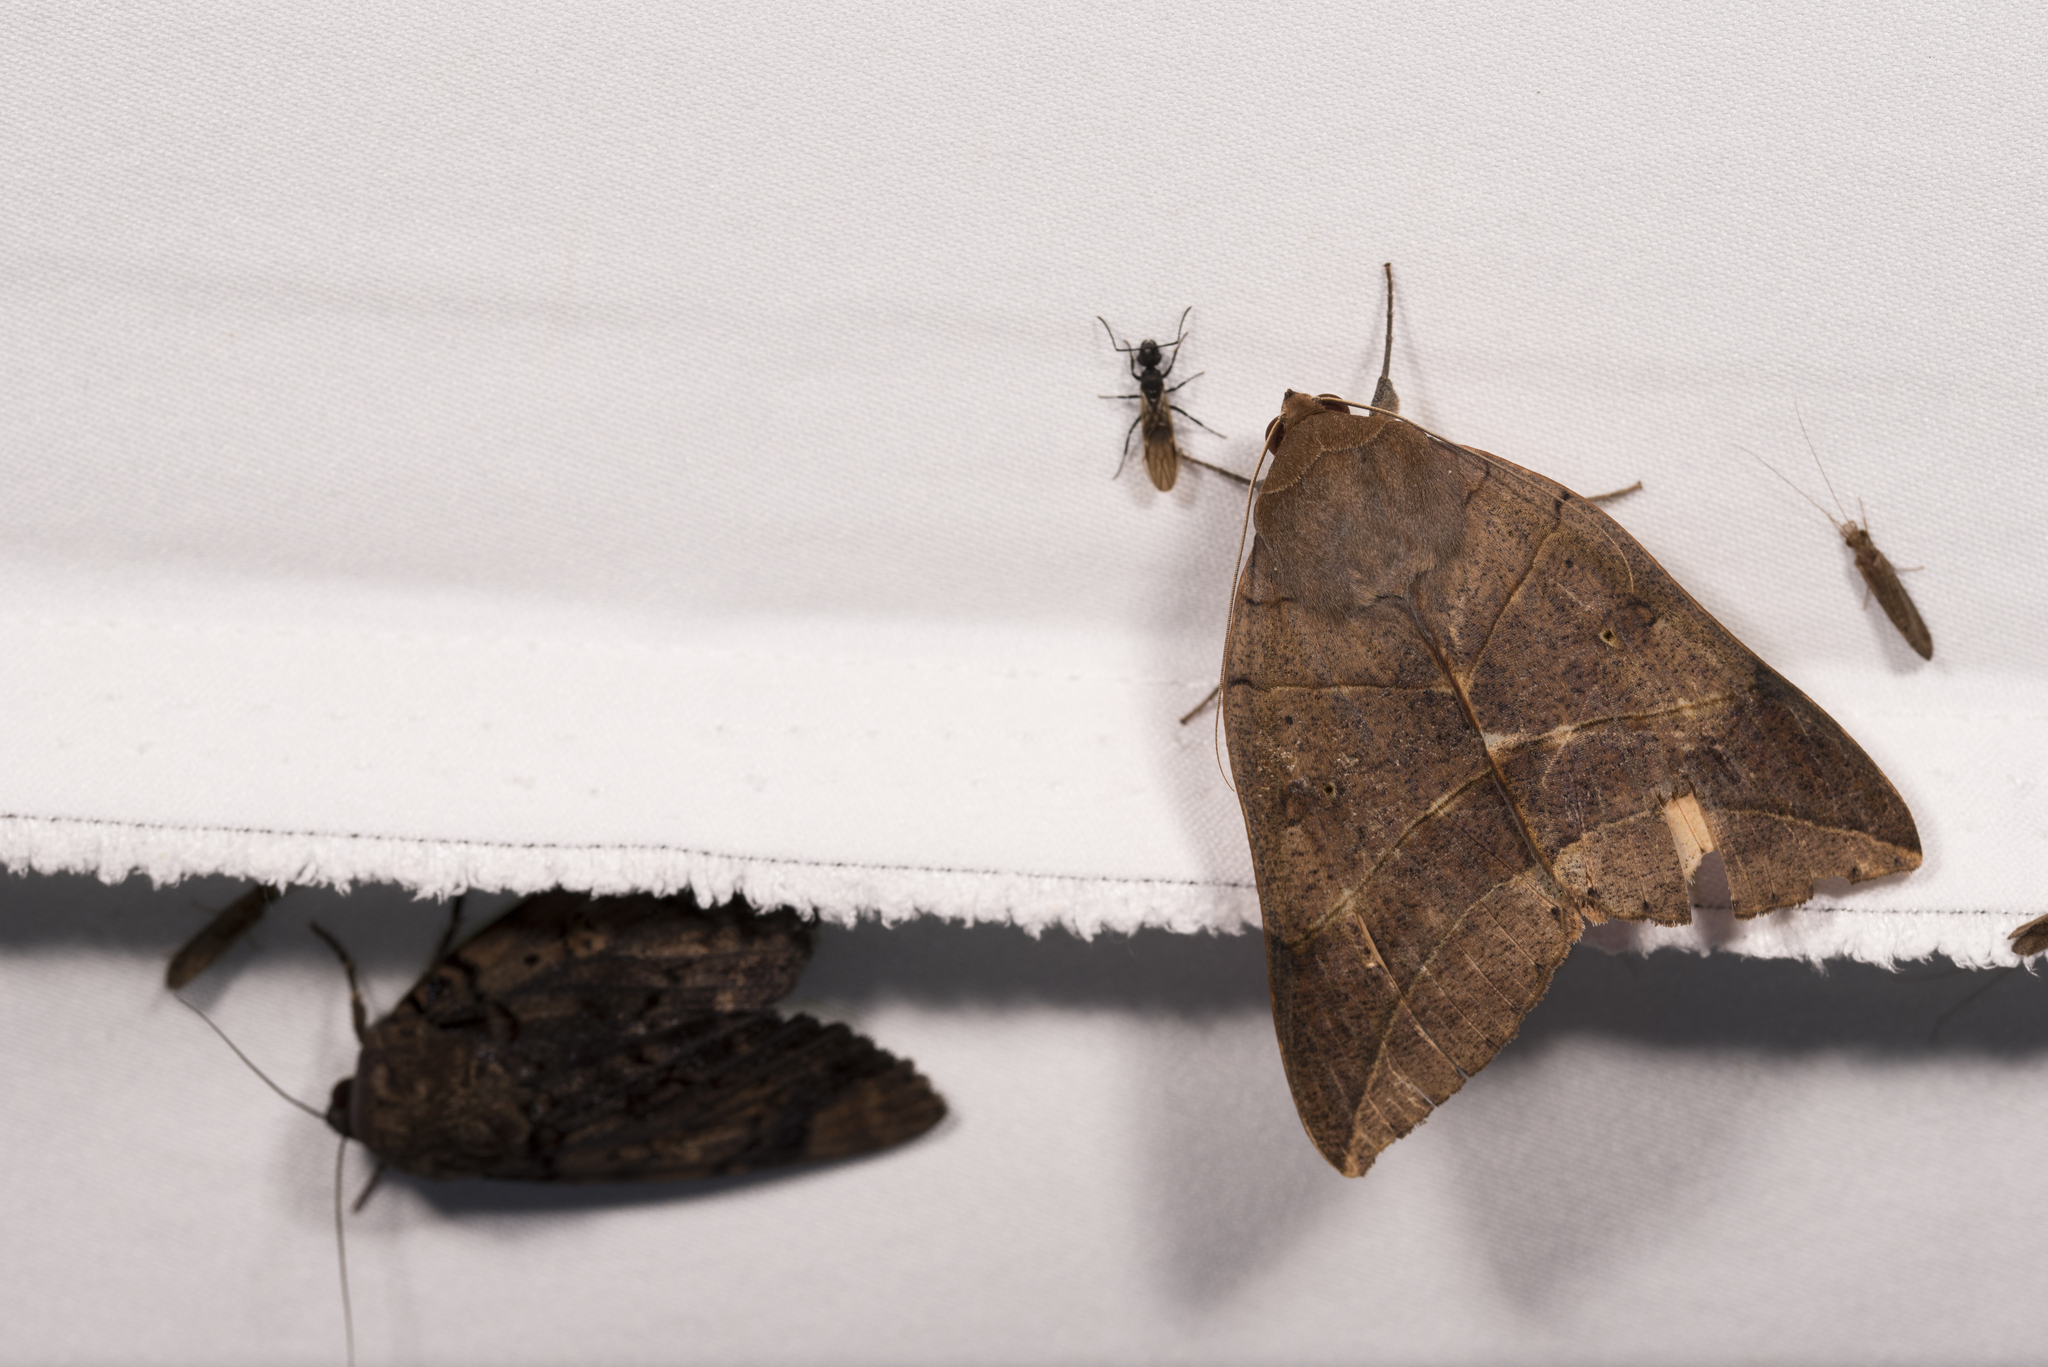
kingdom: Animalia
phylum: Arthropoda
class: Insecta
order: Lepidoptera
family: Erebidae
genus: Thyas
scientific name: Thyas juno
